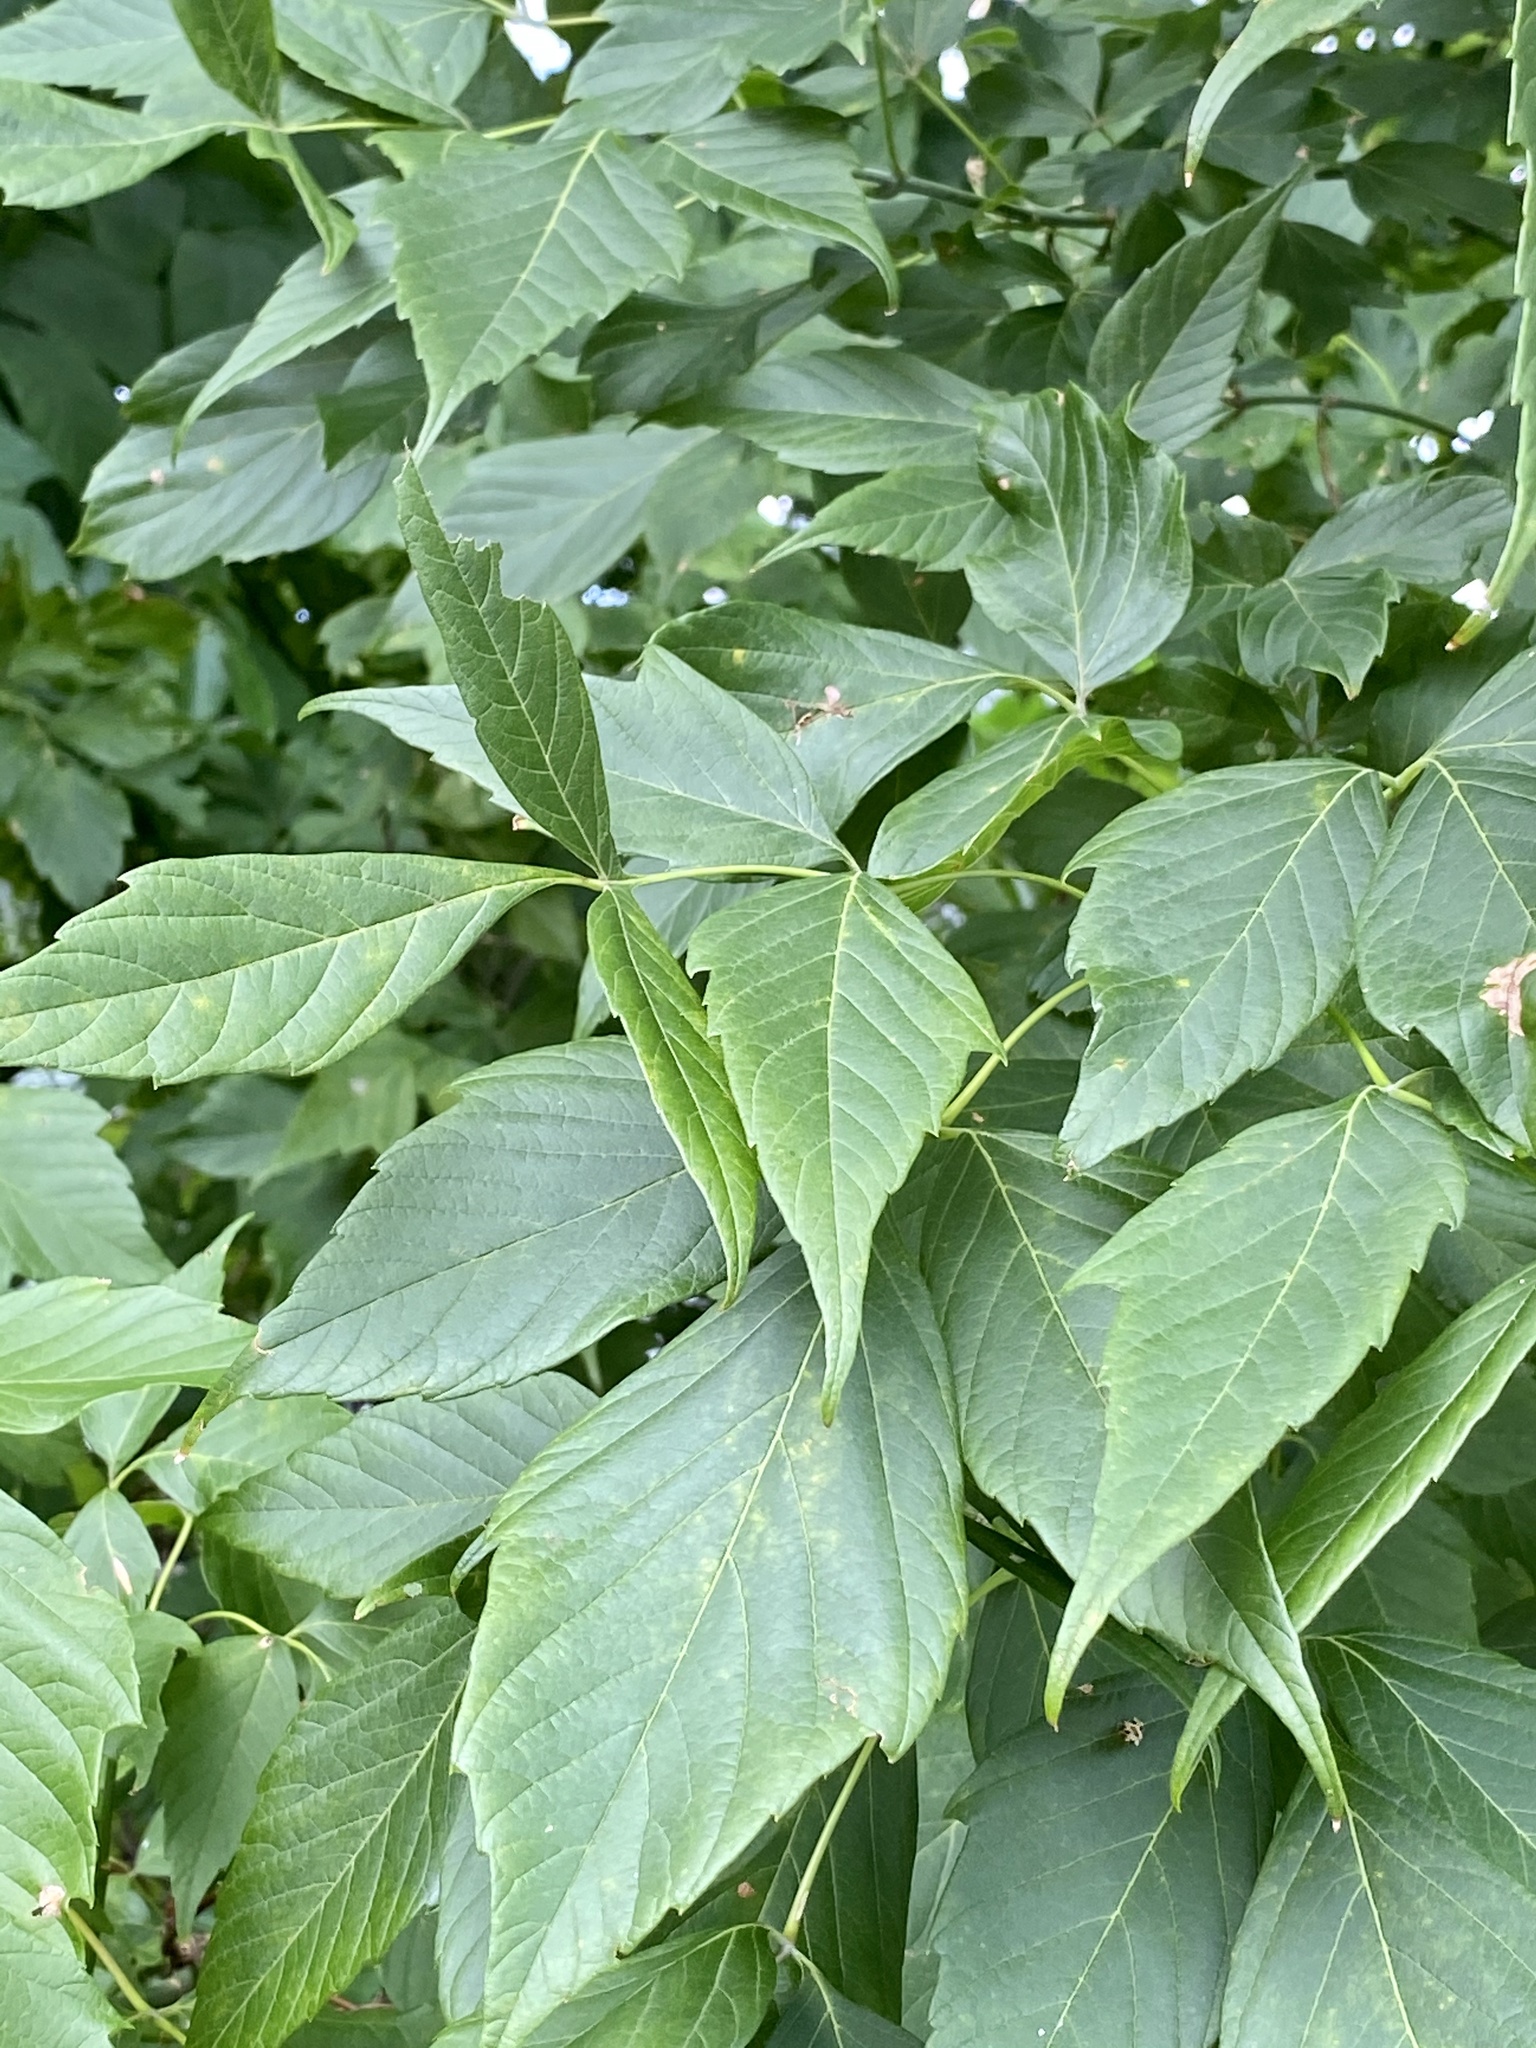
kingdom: Plantae
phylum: Tracheophyta
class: Magnoliopsida
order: Sapindales
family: Sapindaceae
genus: Acer
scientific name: Acer negundo
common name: Ashleaf maple
